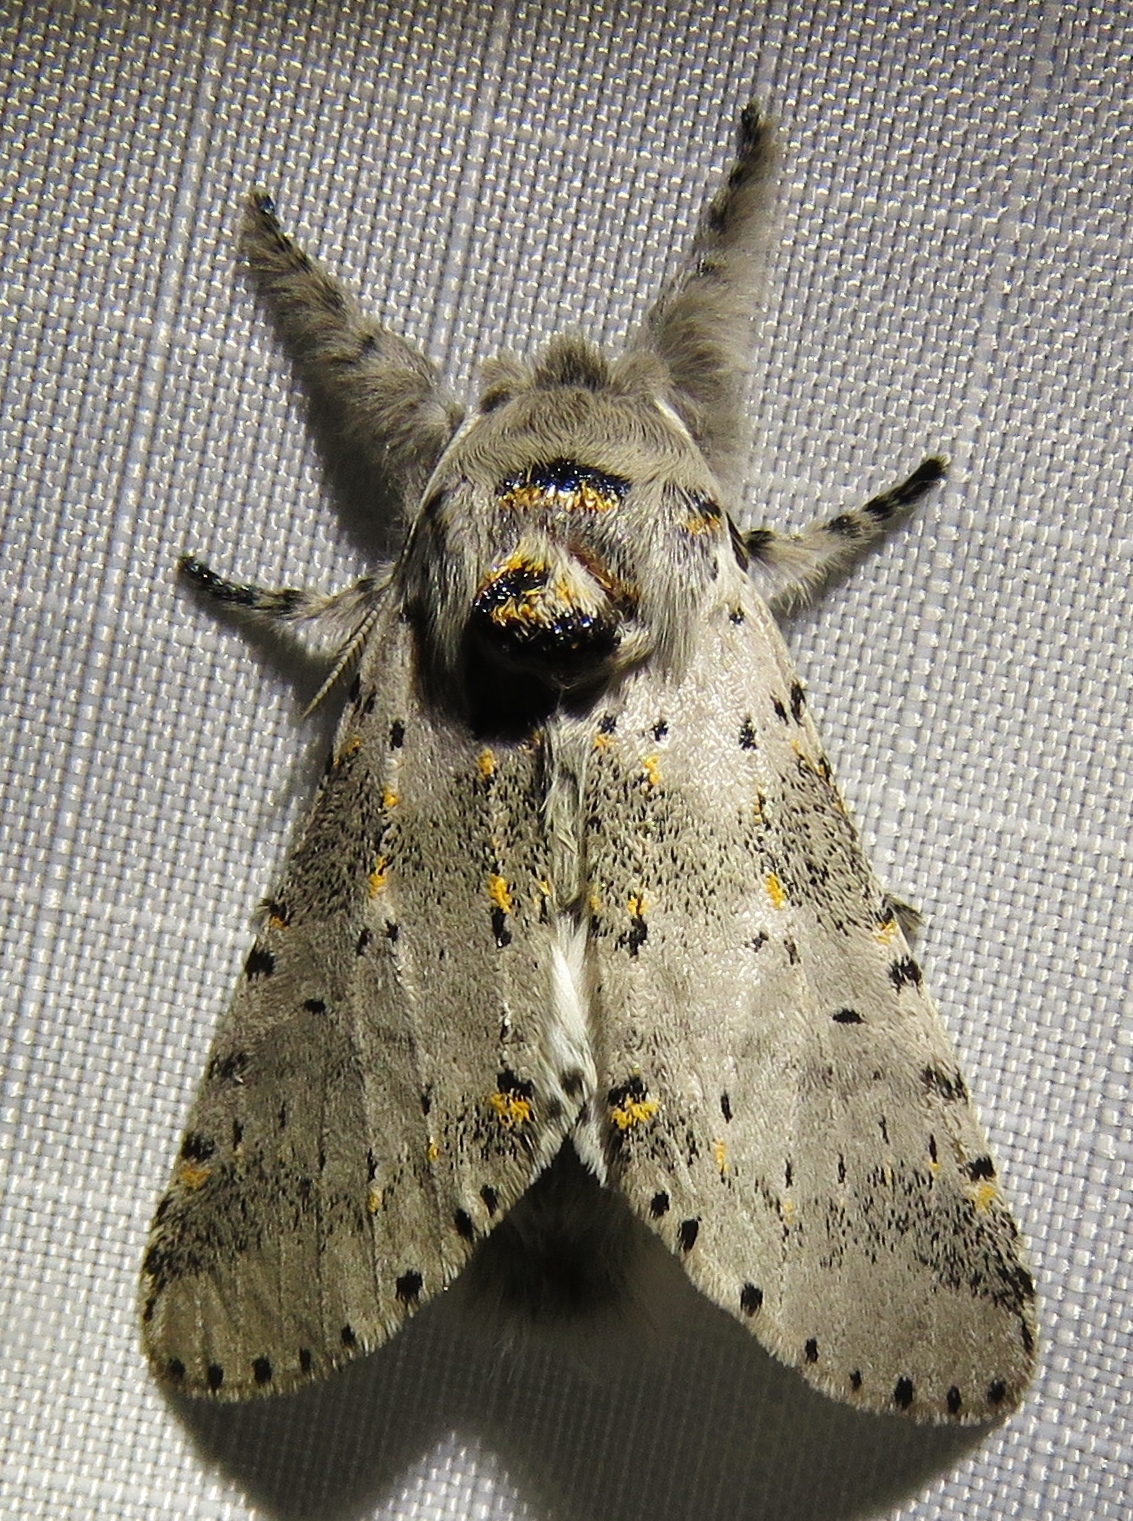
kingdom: Animalia
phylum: Arthropoda
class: Insecta
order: Lepidoptera
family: Notodontidae
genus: Furcula
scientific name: Furcula cinerea
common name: Gray furcula
